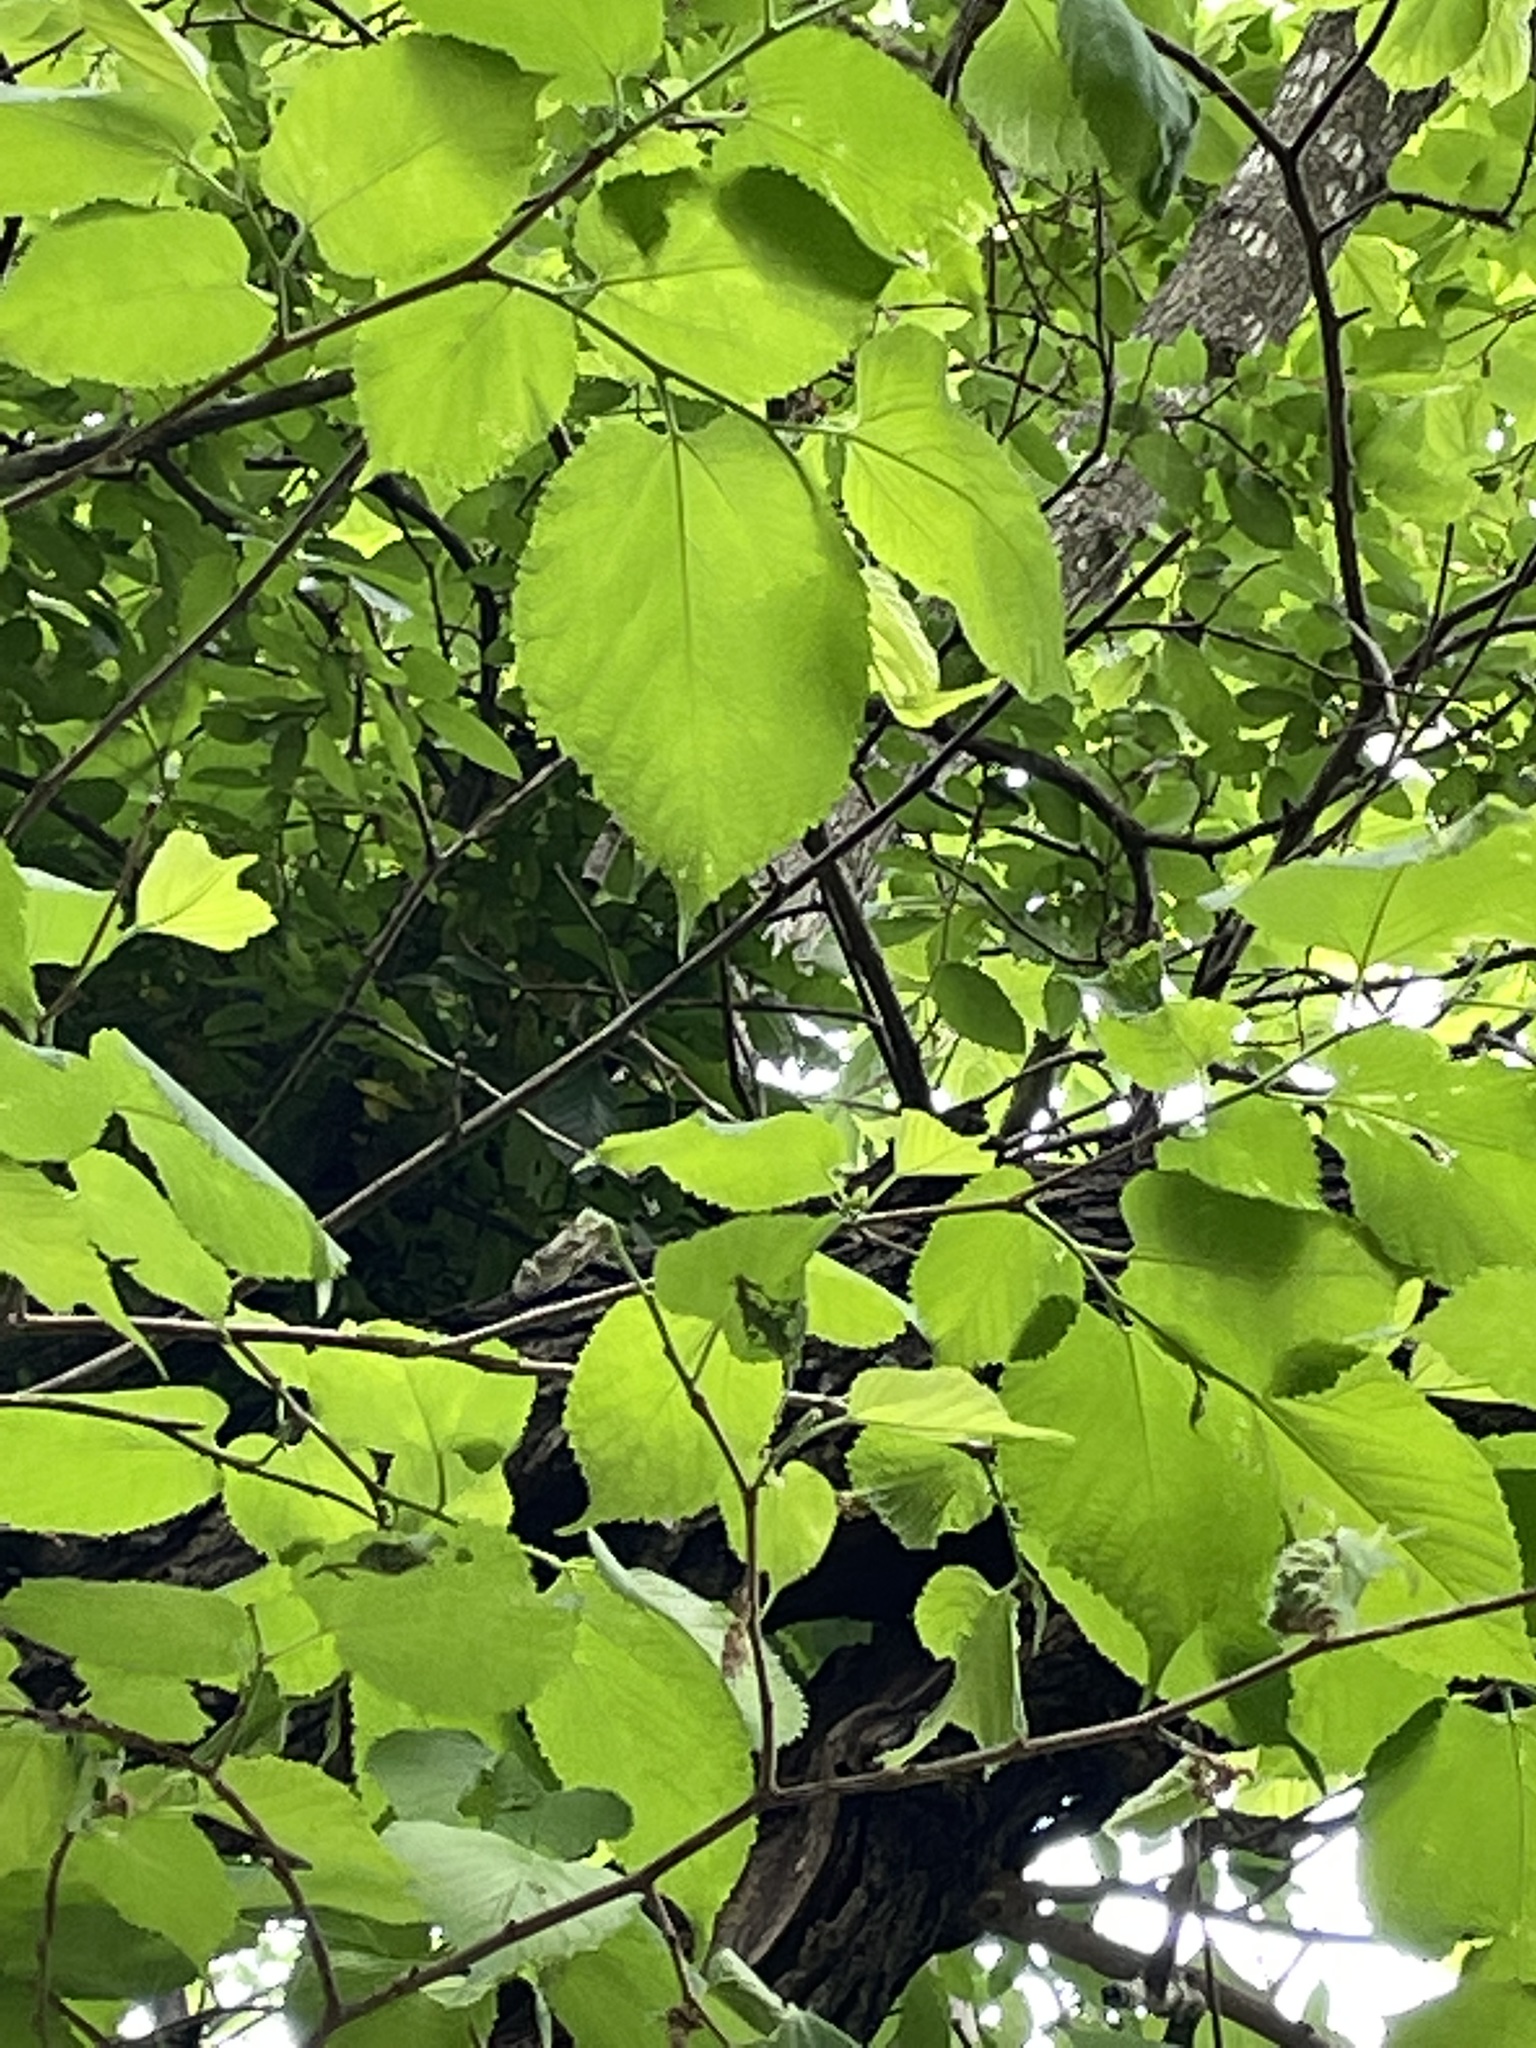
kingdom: Plantae
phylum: Tracheophyta
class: Magnoliopsida
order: Rosales
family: Moraceae
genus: Morus
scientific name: Morus rubra
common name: Red mulberry
